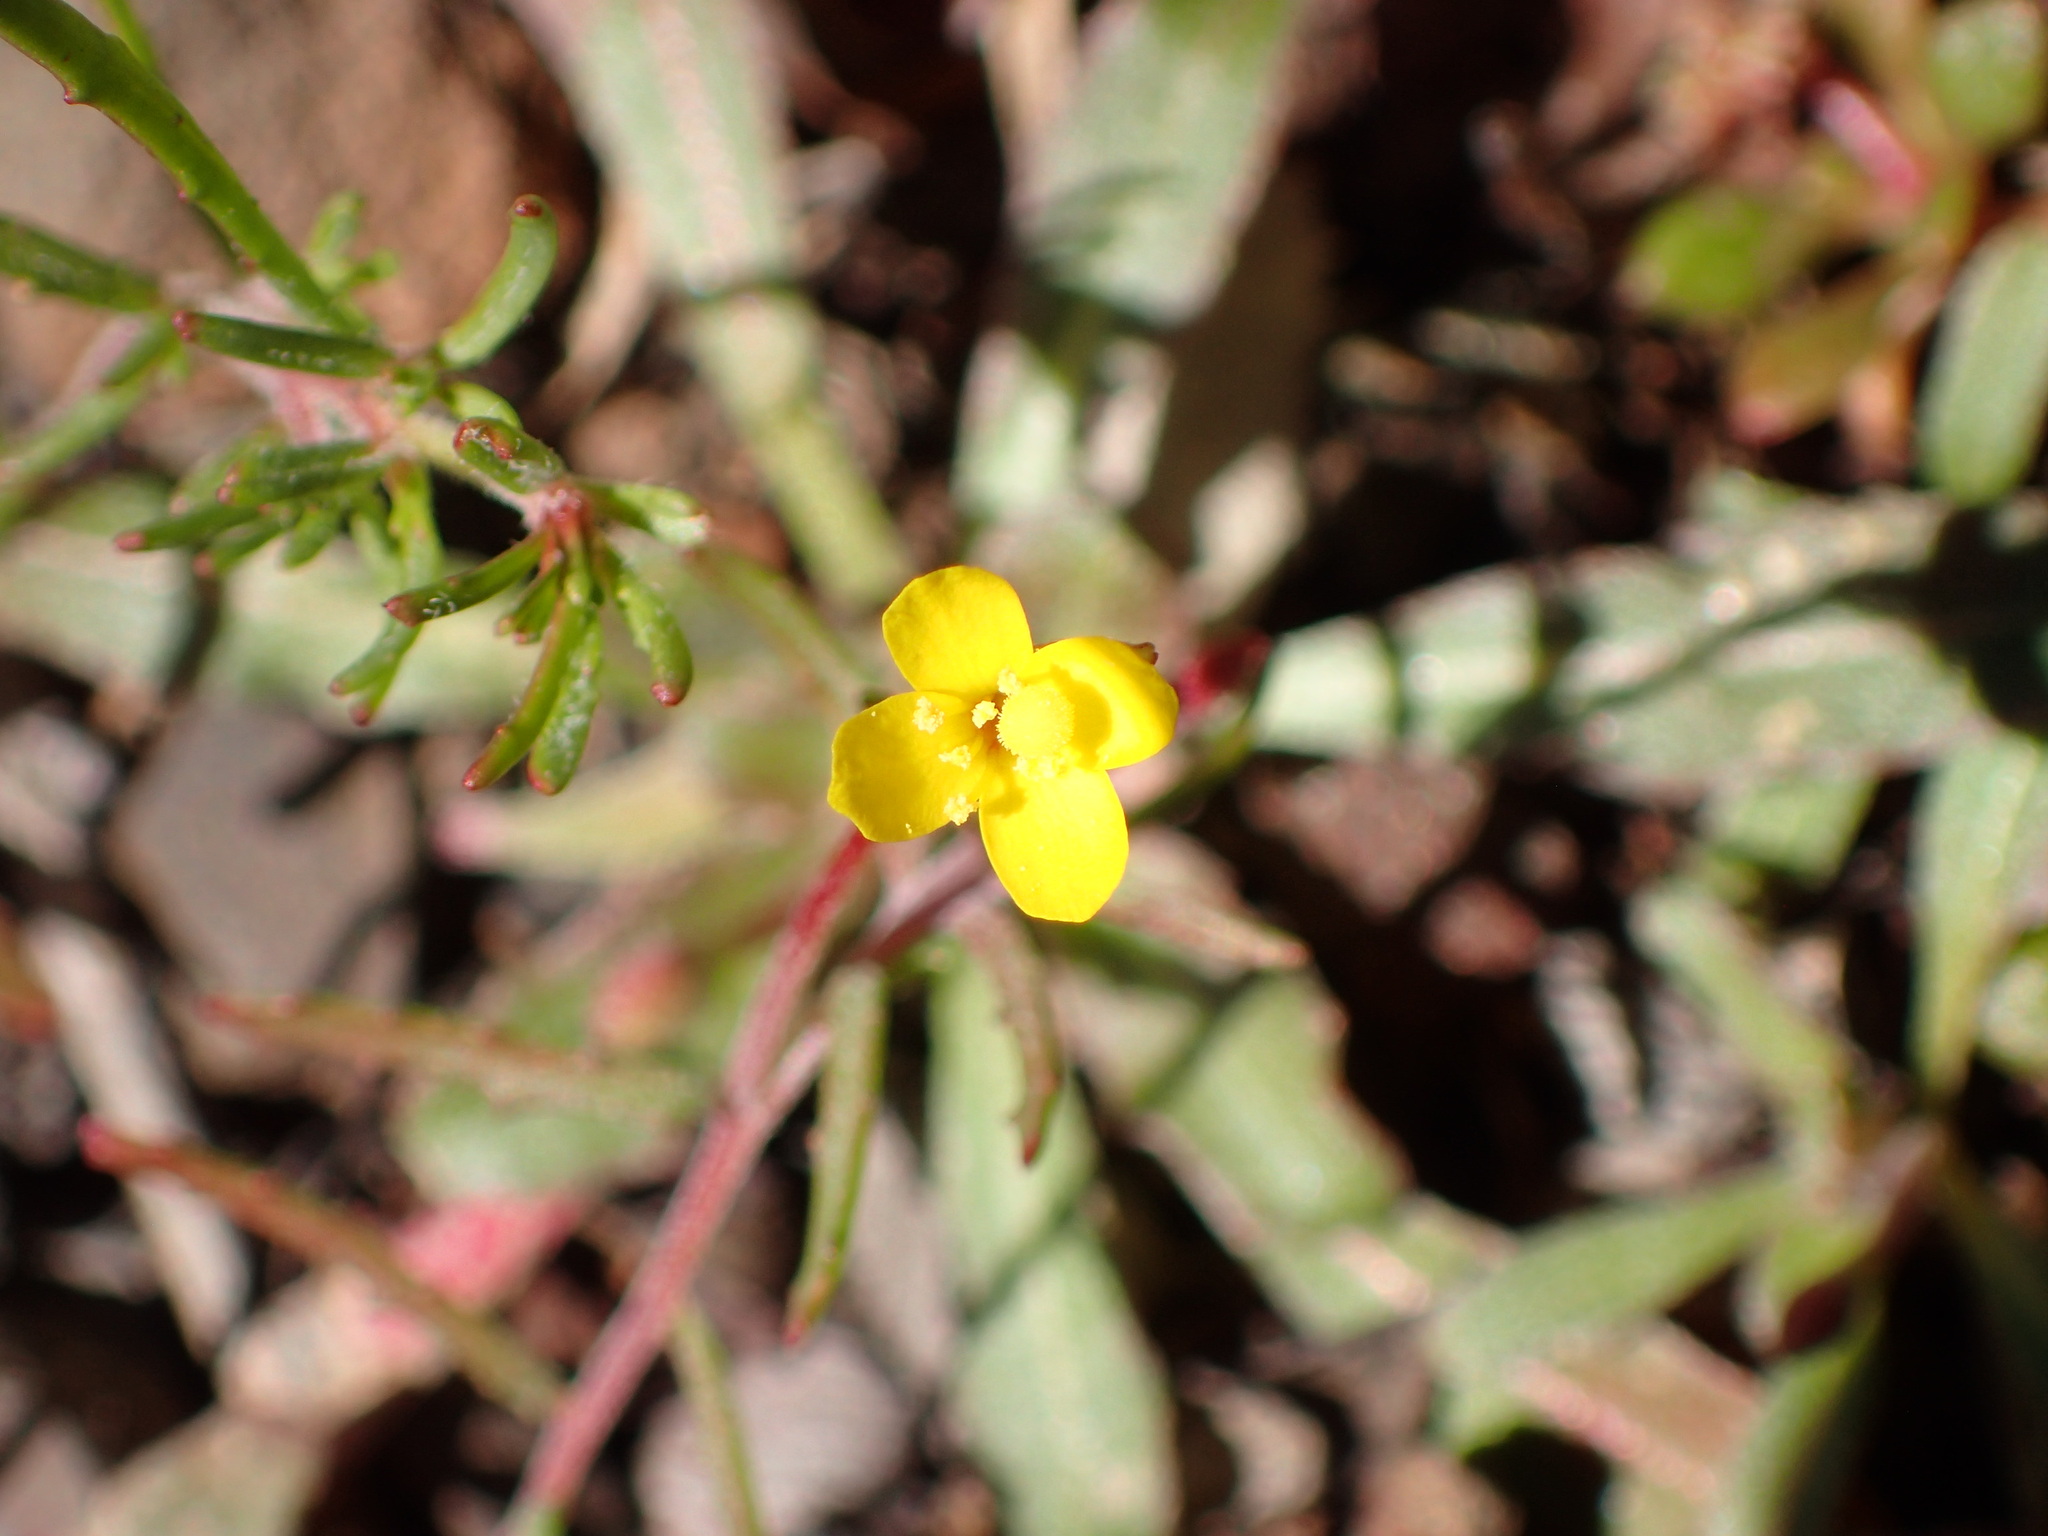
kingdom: Plantae
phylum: Tracheophyta
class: Magnoliopsida
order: Myrtales
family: Onagraceae
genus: Camissonia
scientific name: Camissonia strigulosa
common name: Contorted-primrose
